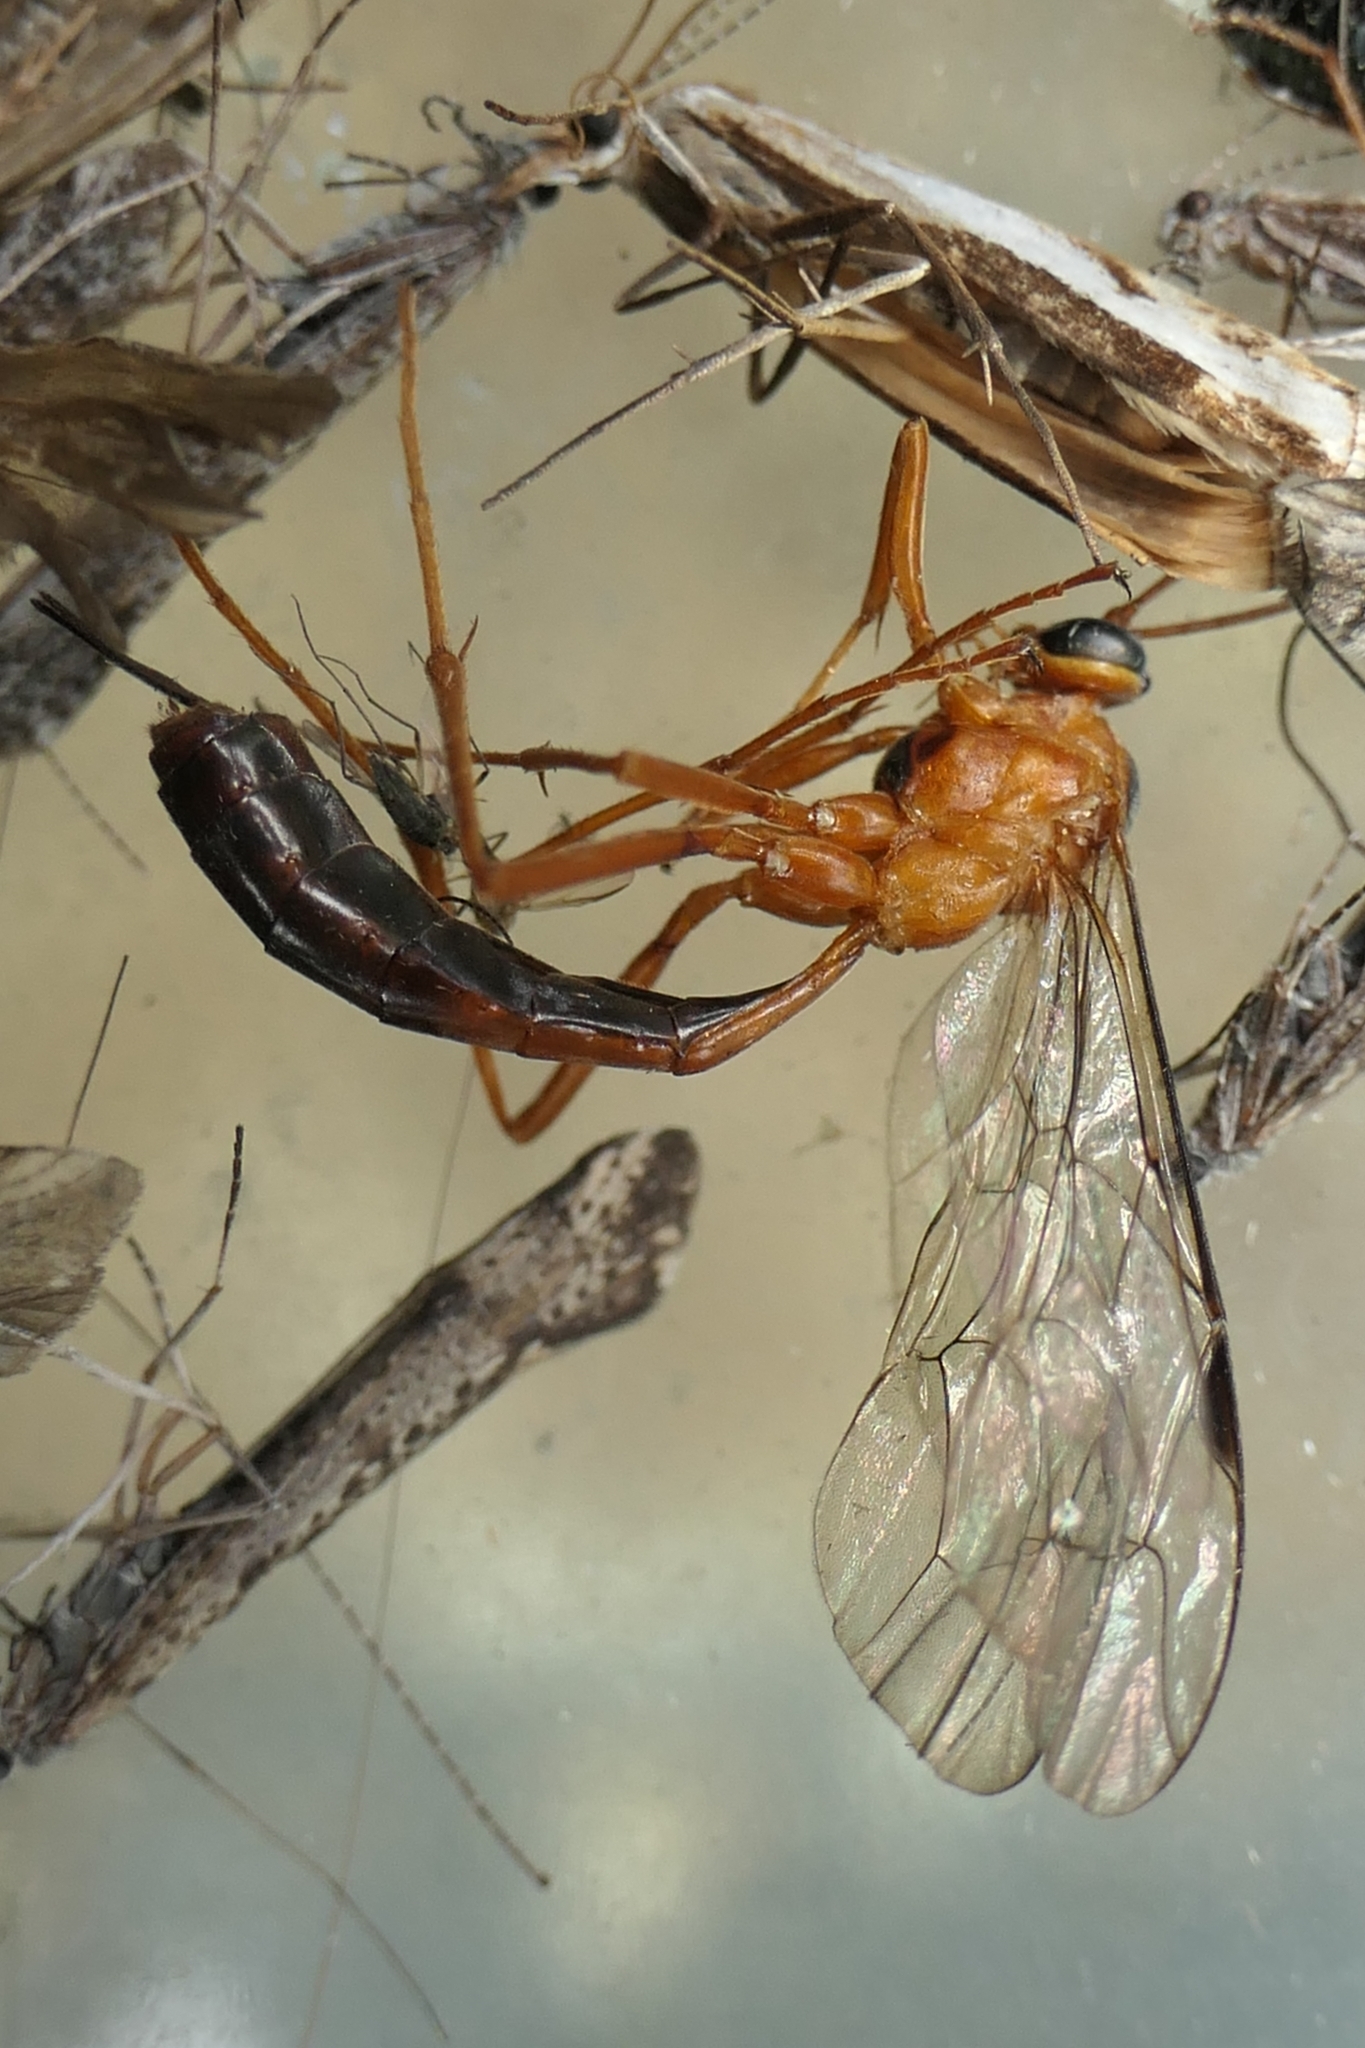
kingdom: Animalia
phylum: Arthropoda
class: Insecta
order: Hymenoptera
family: Ichneumonidae
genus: Netelia
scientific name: Netelia ephippiata
